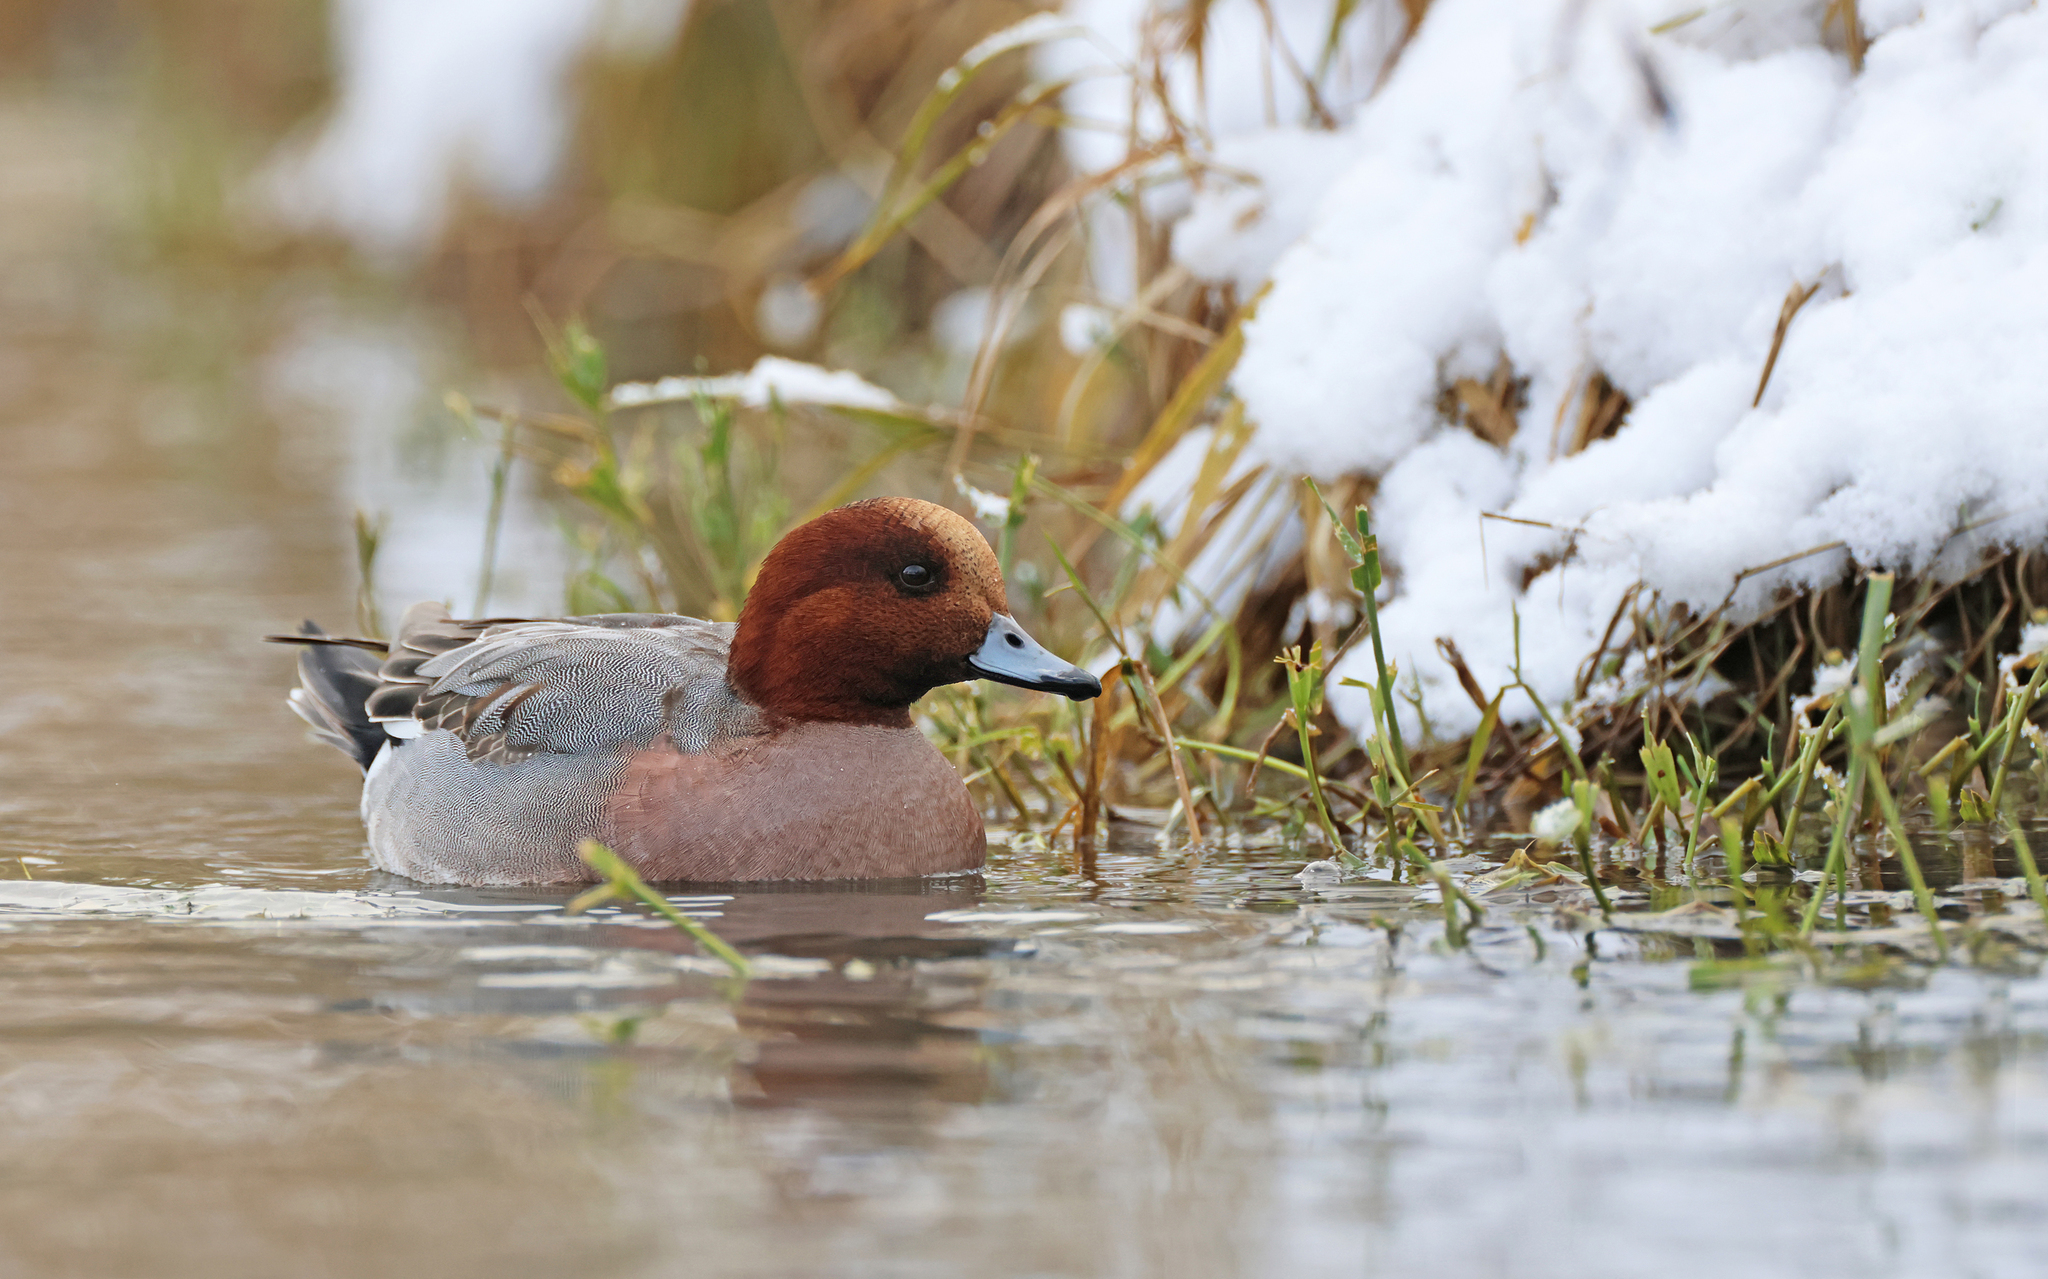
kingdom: Animalia
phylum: Chordata
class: Aves
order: Anseriformes
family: Anatidae
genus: Mareca
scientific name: Mareca penelope
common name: Eurasian wigeon
